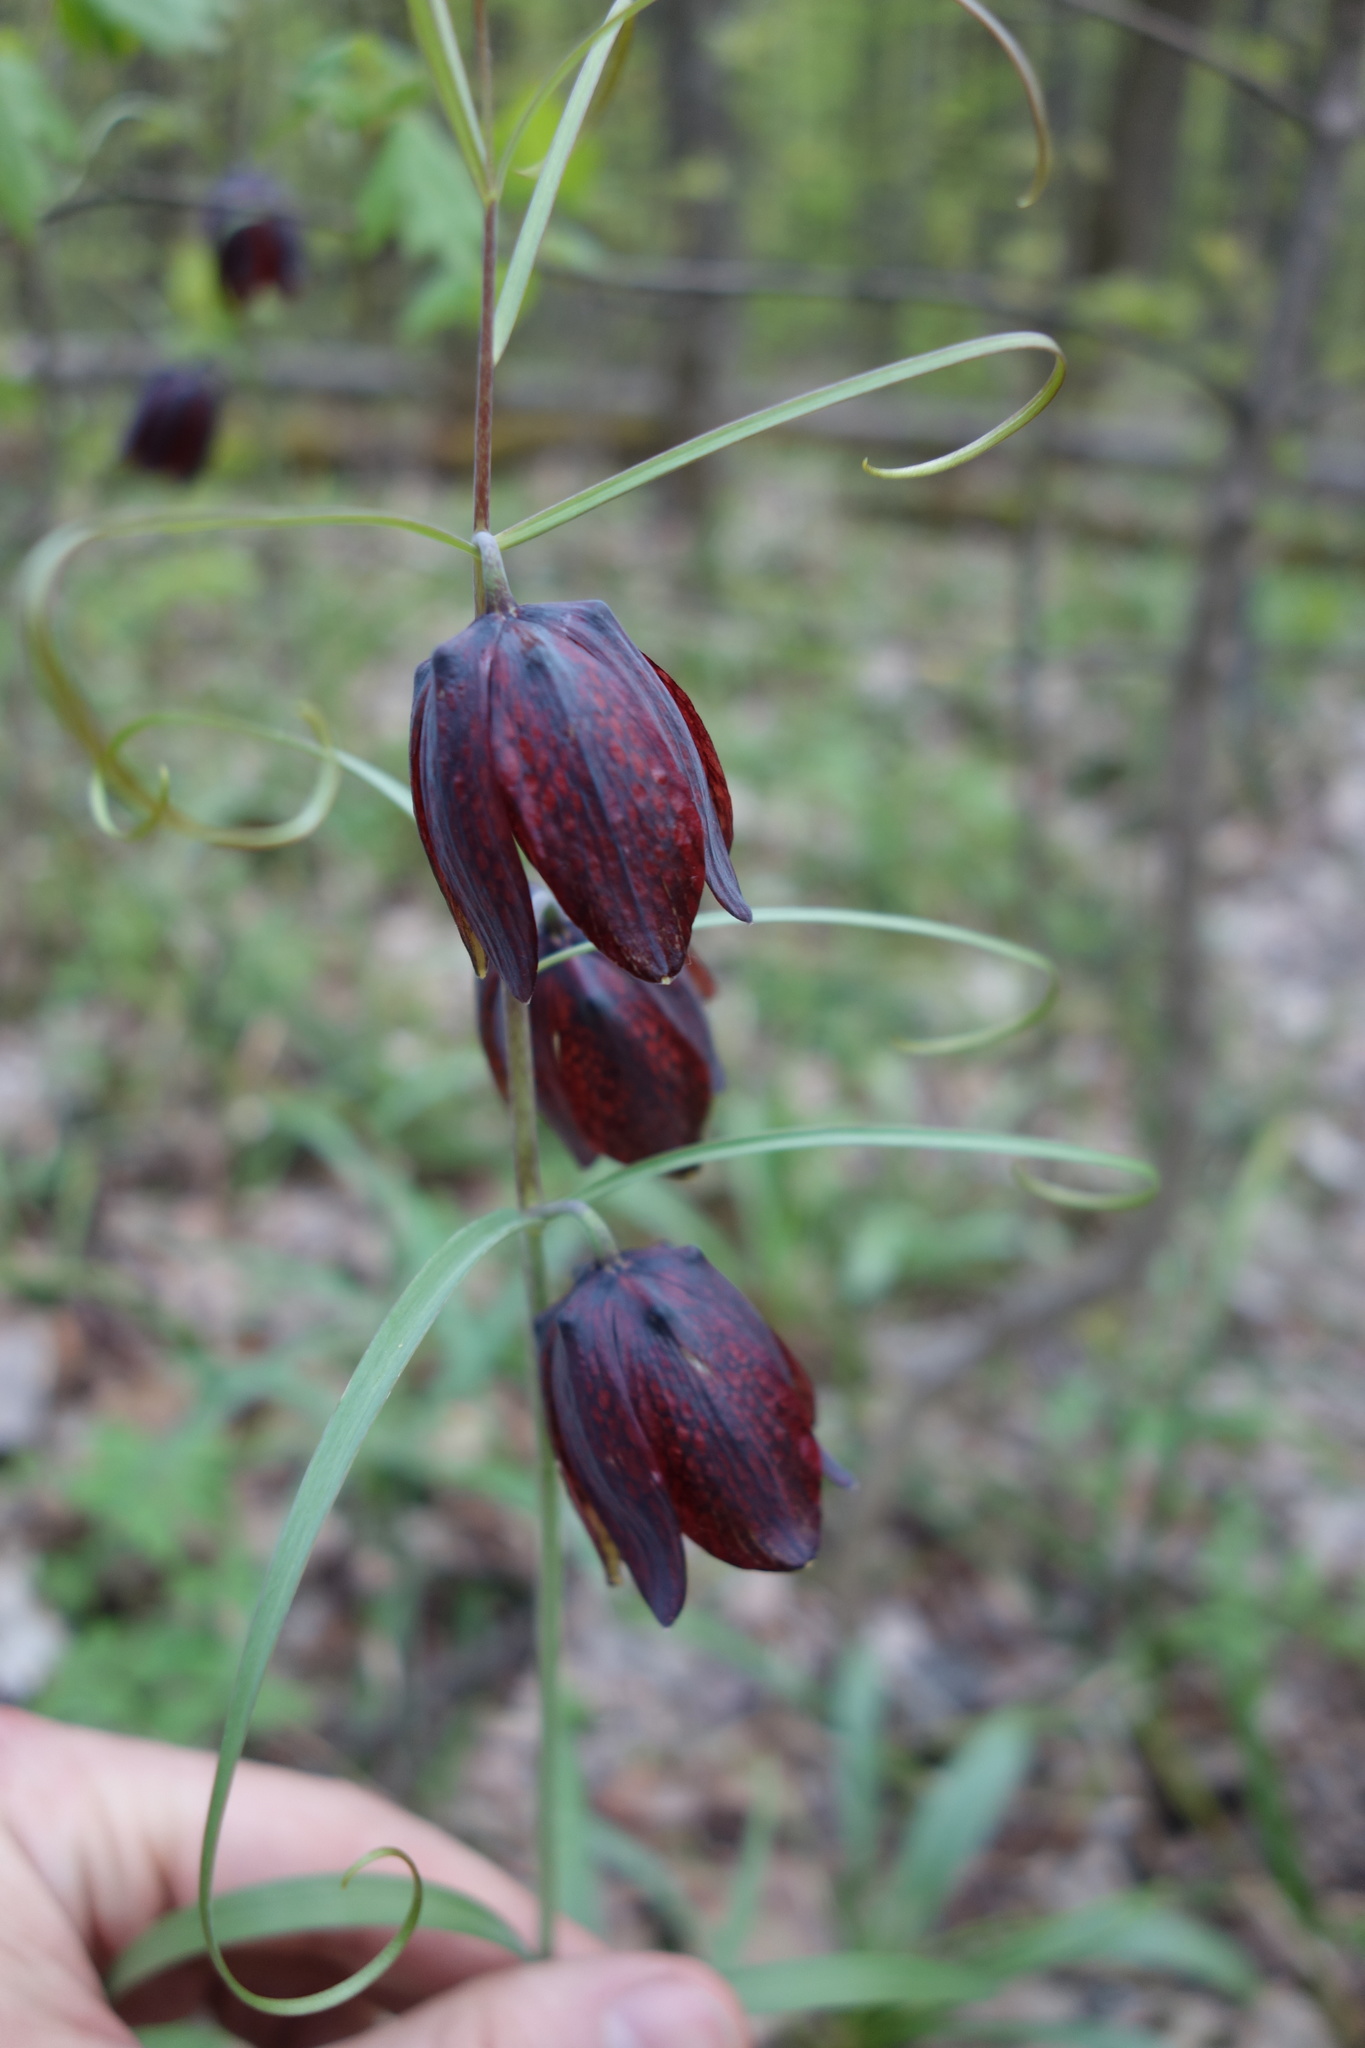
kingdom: Plantae
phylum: Tracheophyta
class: Liliopsida
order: Liliales
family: Liliaceae
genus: Fritillaria
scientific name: Fritillaria ruthenica
